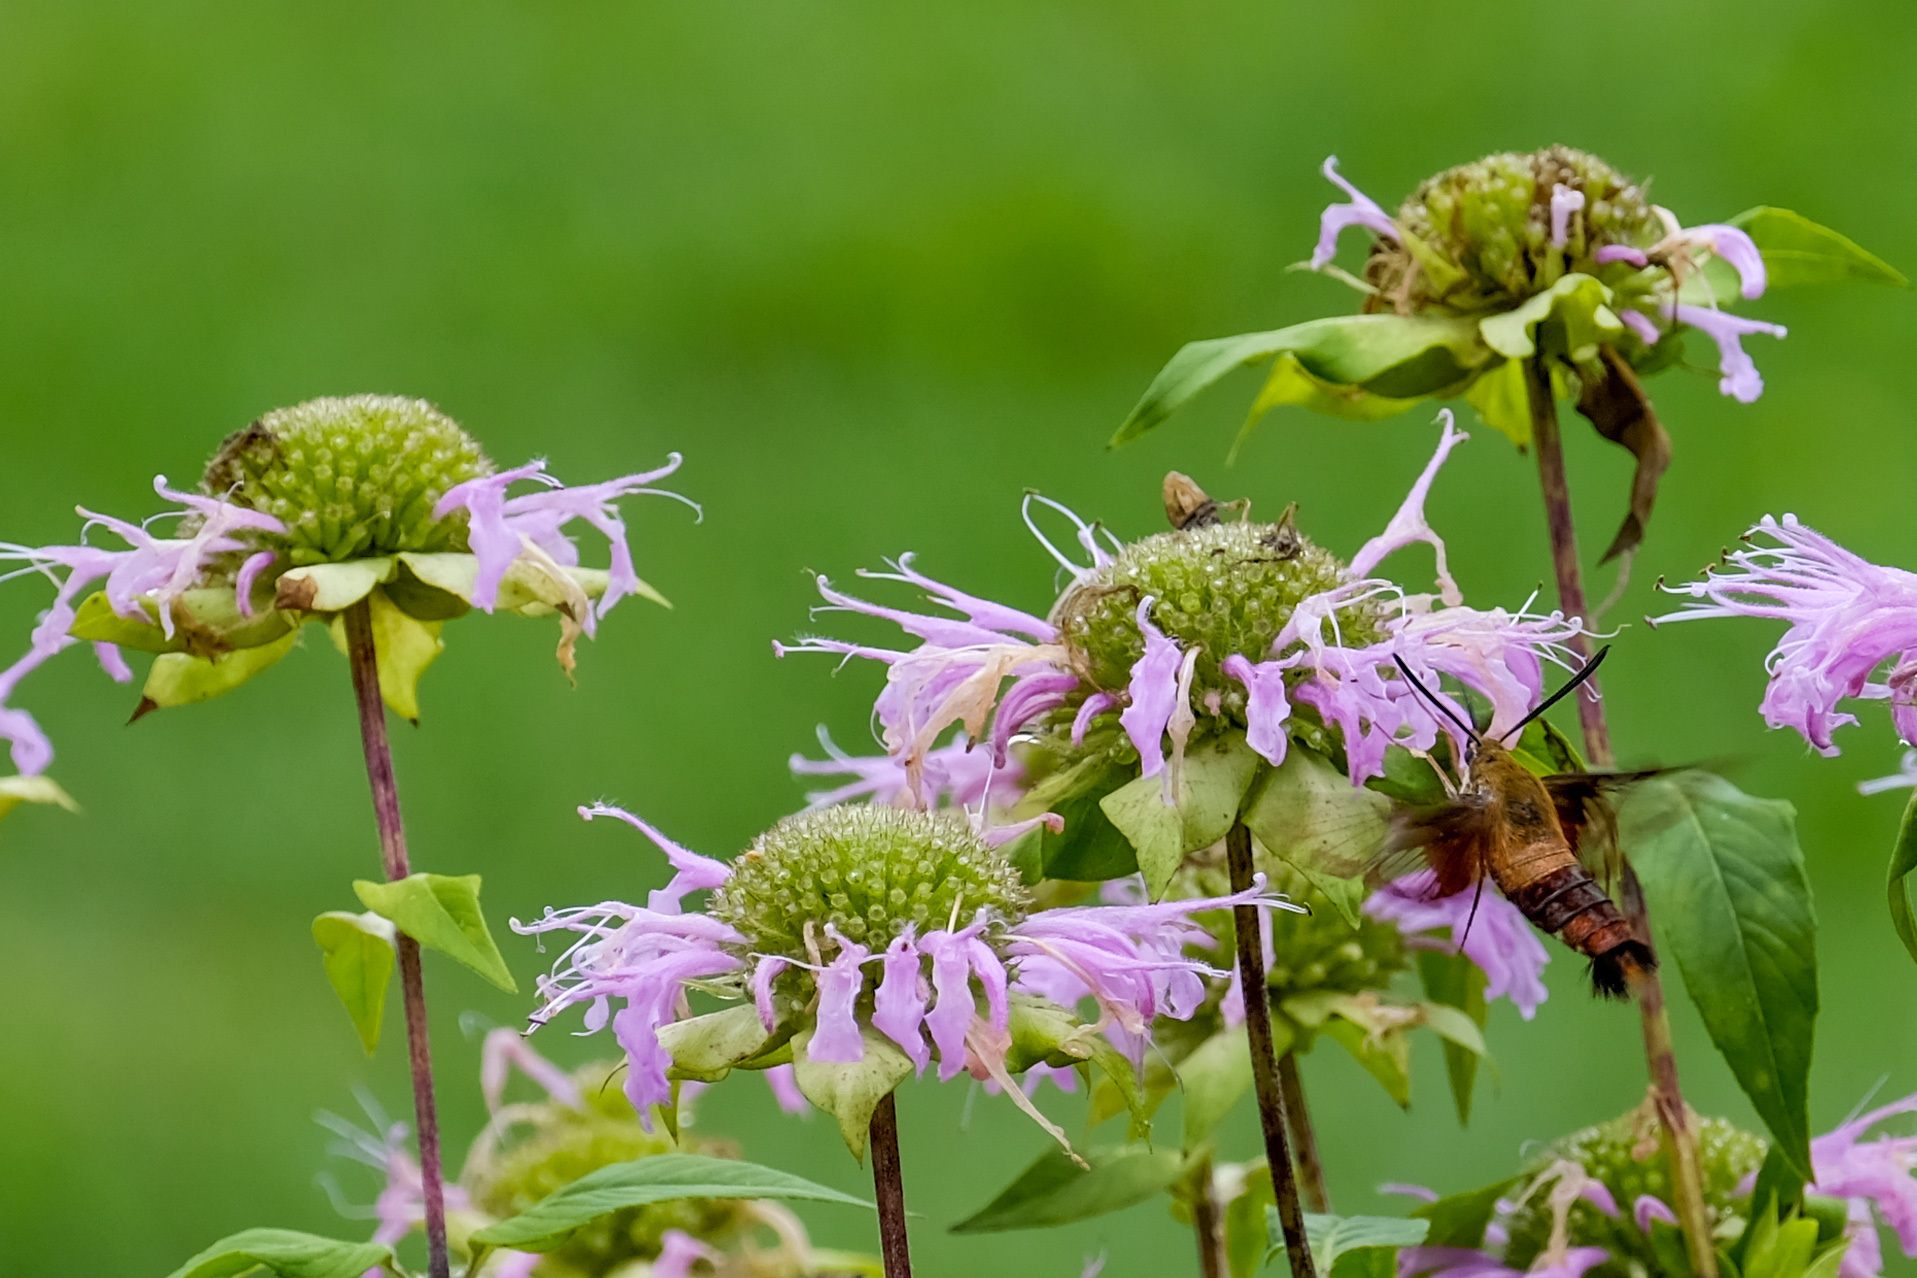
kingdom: Plantae
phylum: Tracheophyta
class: Magnoliopsida
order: Lamiales
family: Lamiaceae
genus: Monarda
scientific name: Monarda fistulosa
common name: Purple beebalm
